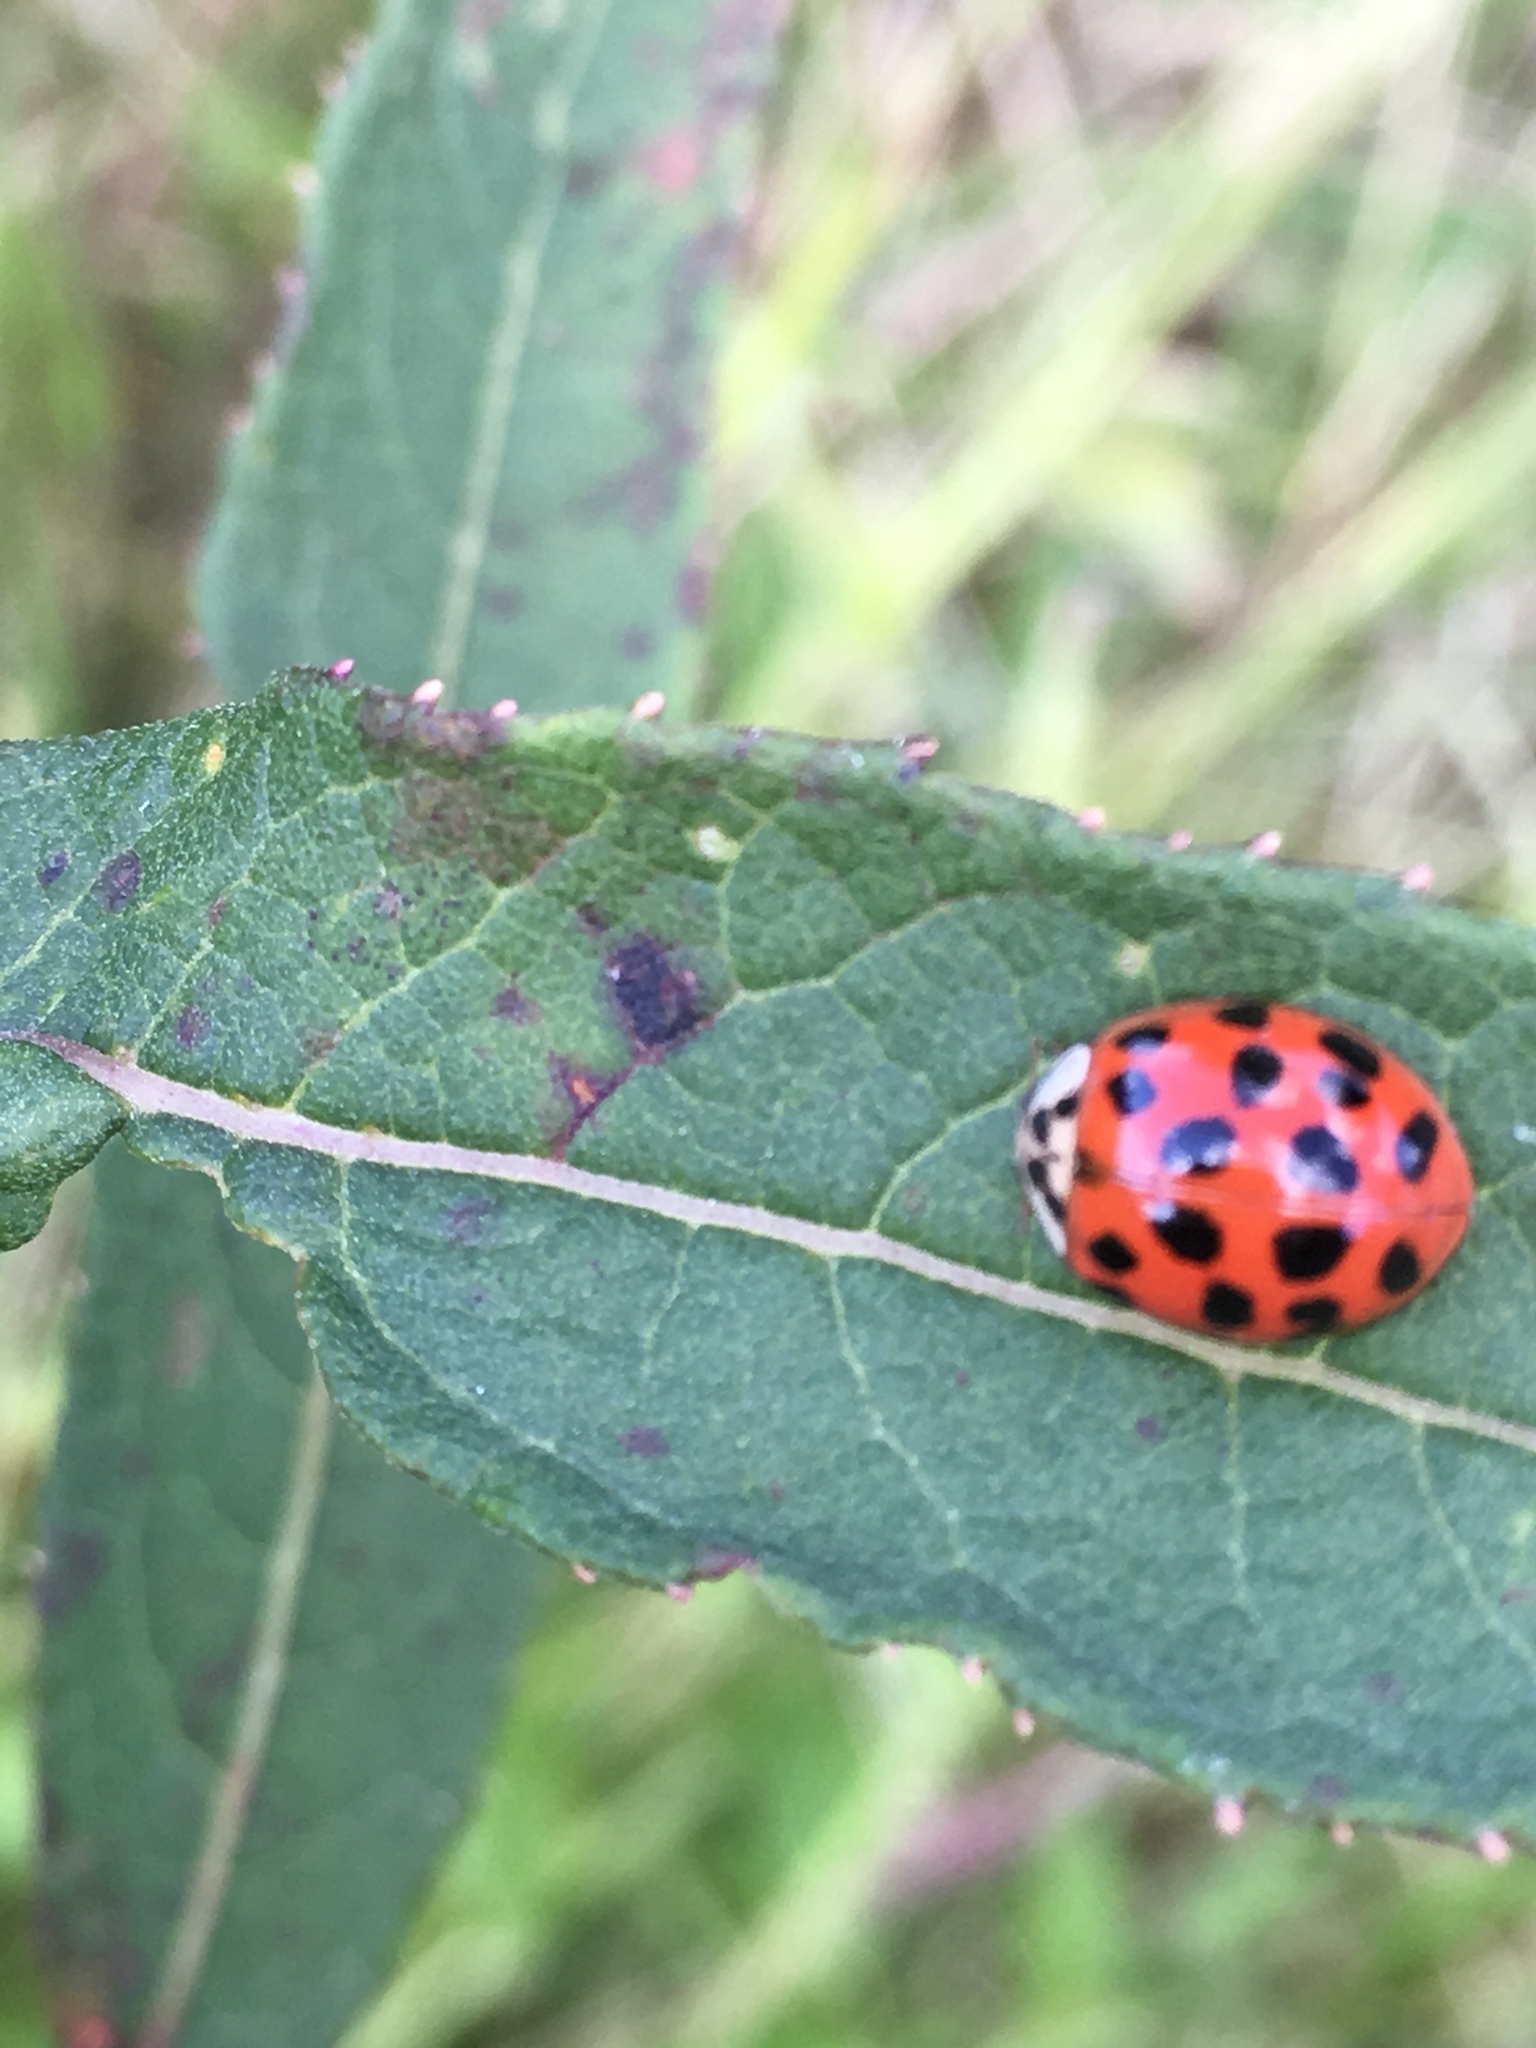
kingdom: Animalia
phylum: Arthropoda
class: Insecta
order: Coleoptera
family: Coccinellidae
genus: Harmonia
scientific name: Harmonia axyridis
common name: Harlequin ladybird
